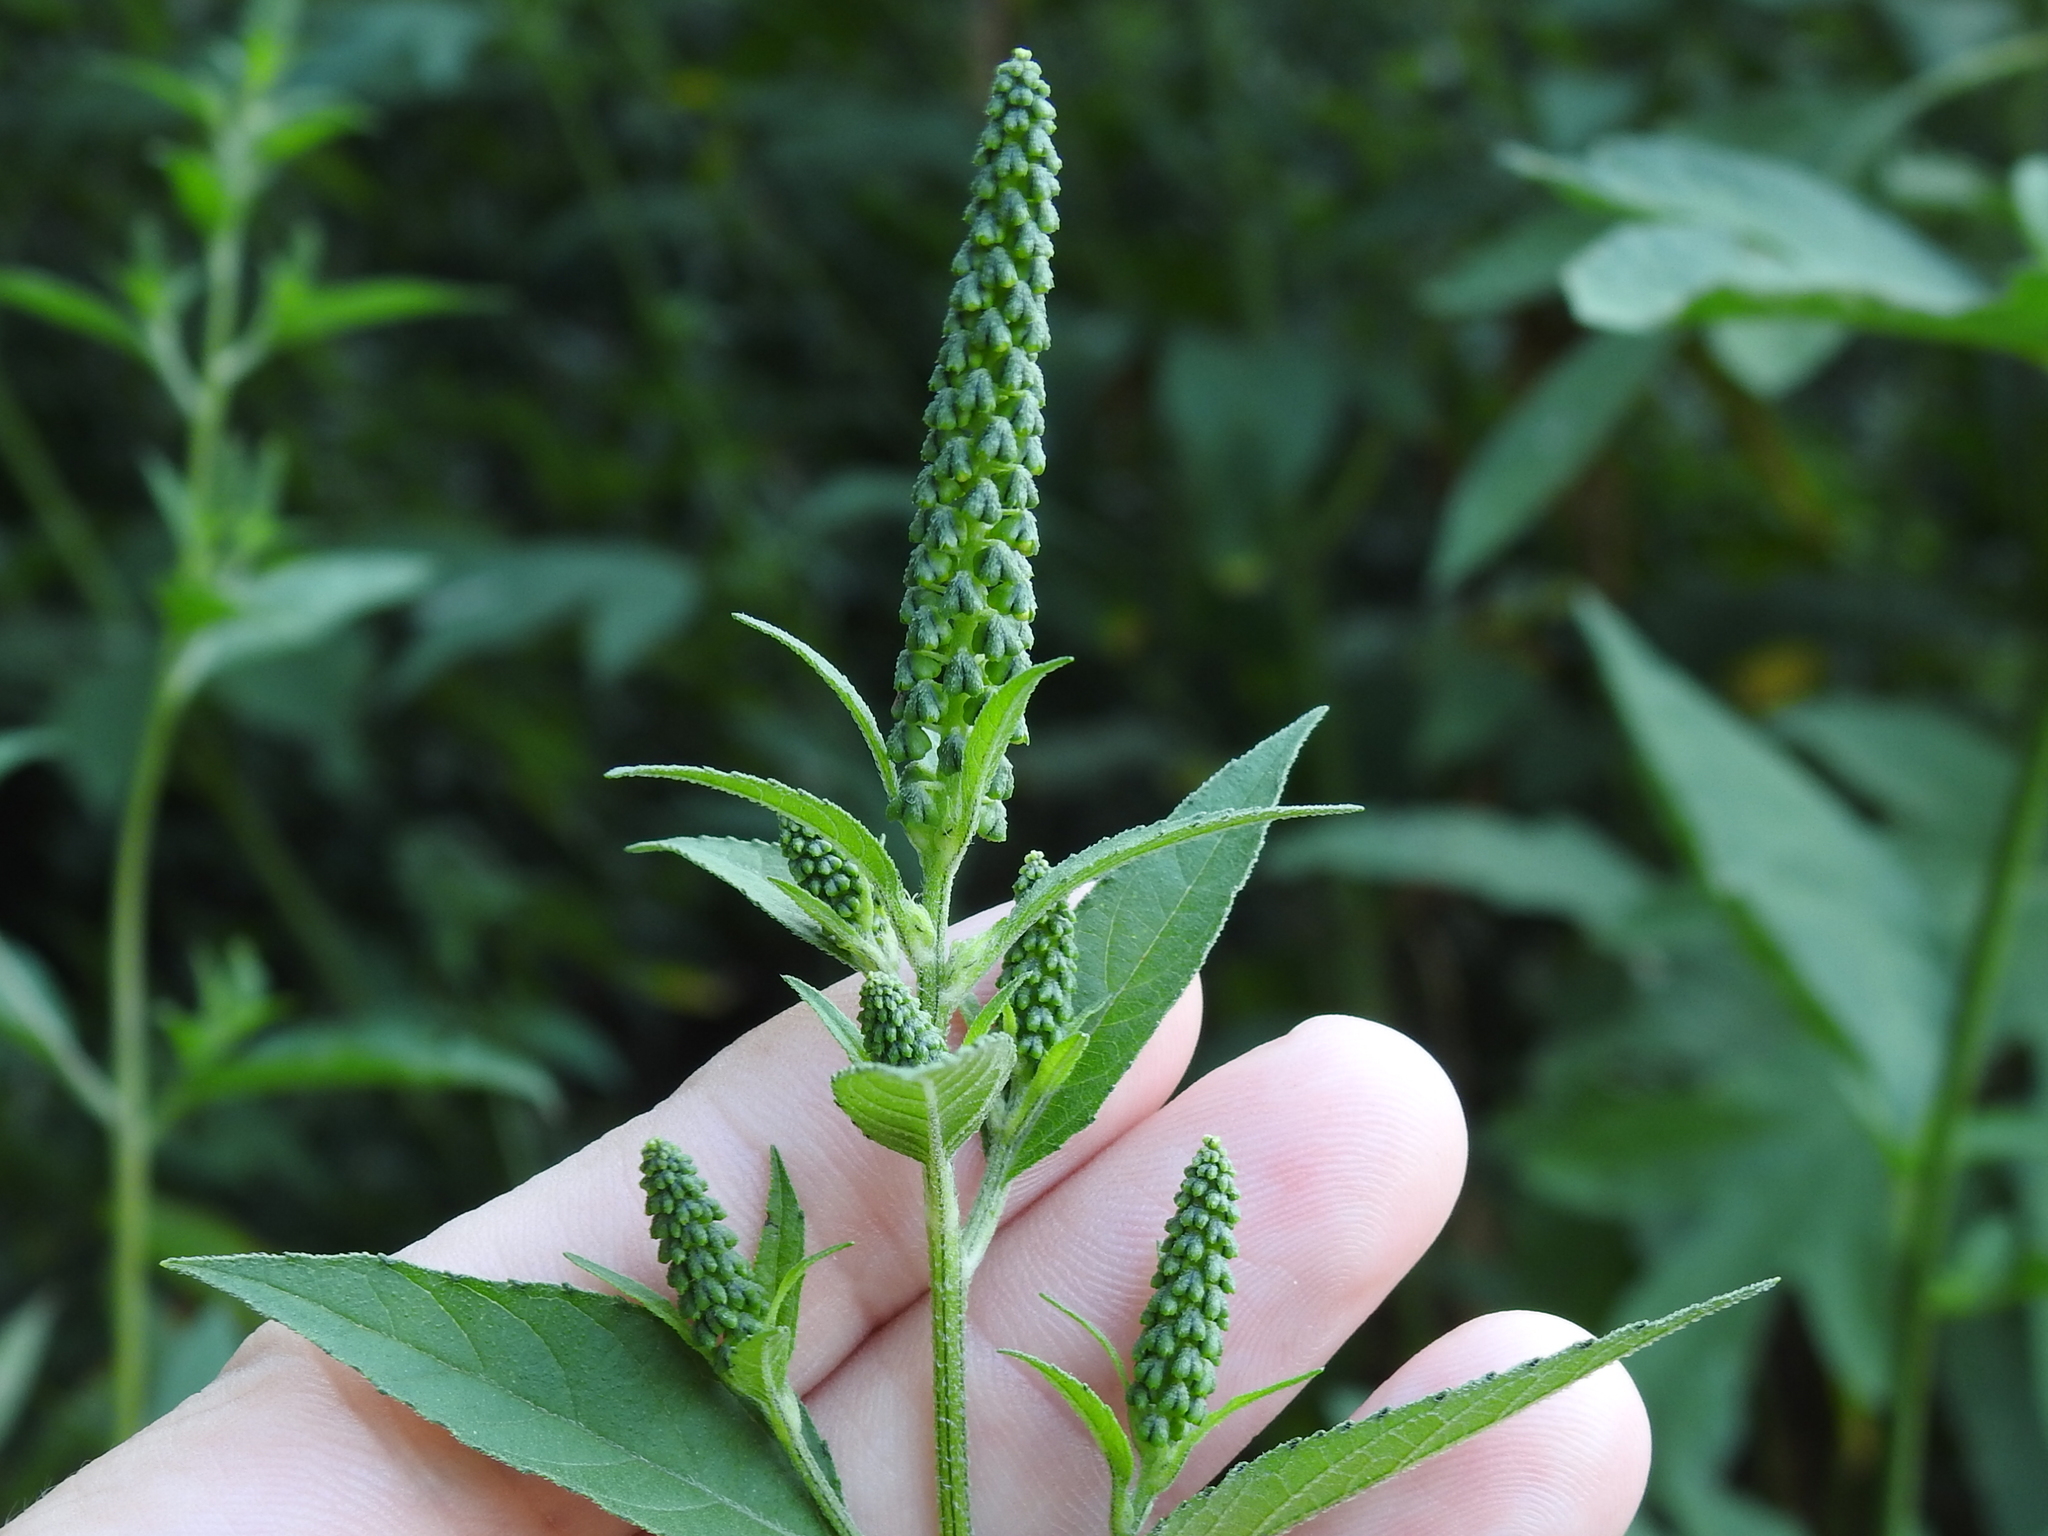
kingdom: Plantae
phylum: Tracheophyta
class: Magnoliopsida
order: Asterales
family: Asteraceae
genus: Ambrosia
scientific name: Ambrosia trifida
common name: Giant ragweed
